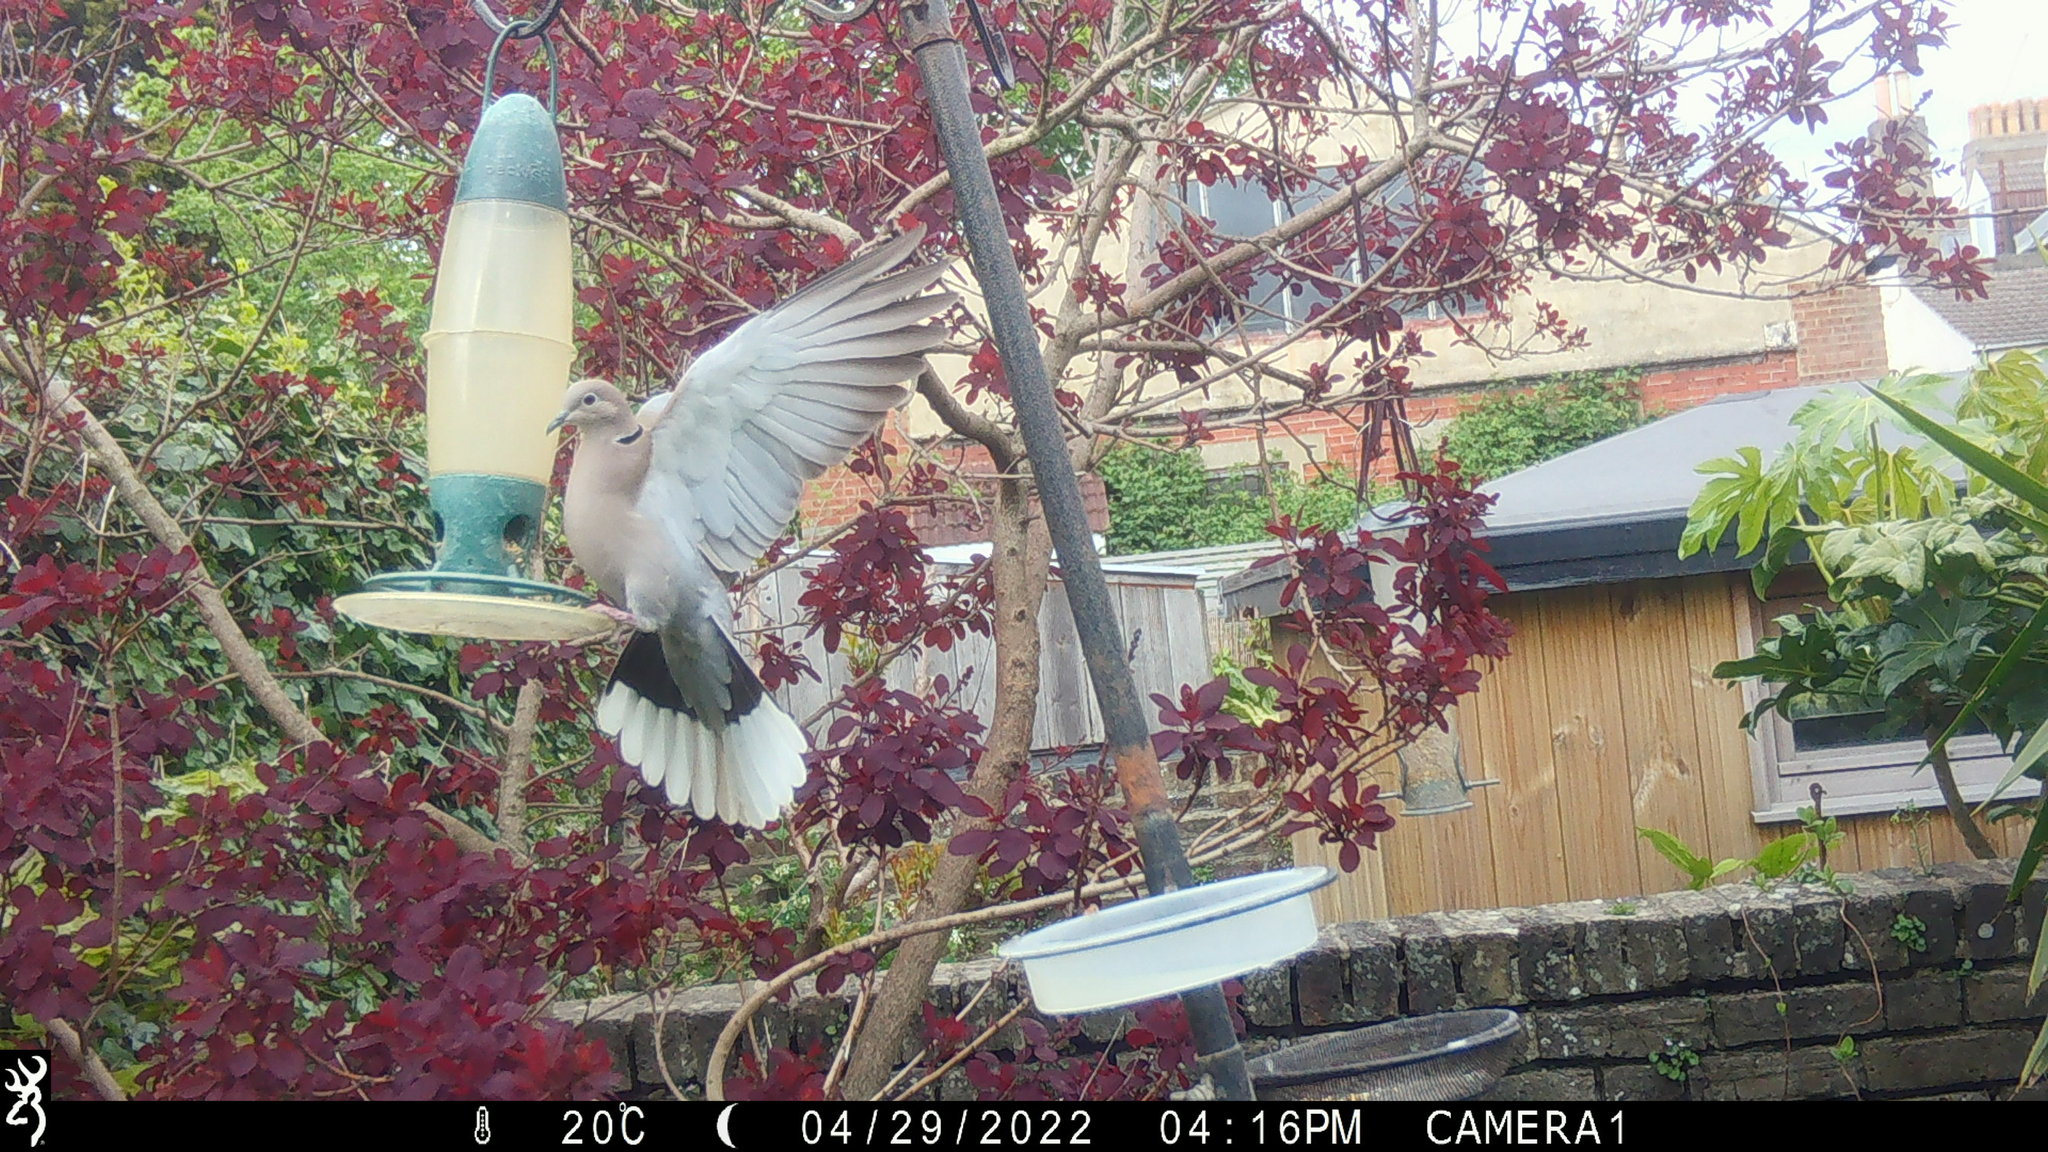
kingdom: Animalia
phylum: Chordata
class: Aves
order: Columbiformes
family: Columbidae
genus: Streptopelia
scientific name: Streptopelia decaocto
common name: Eurasian collared dove
